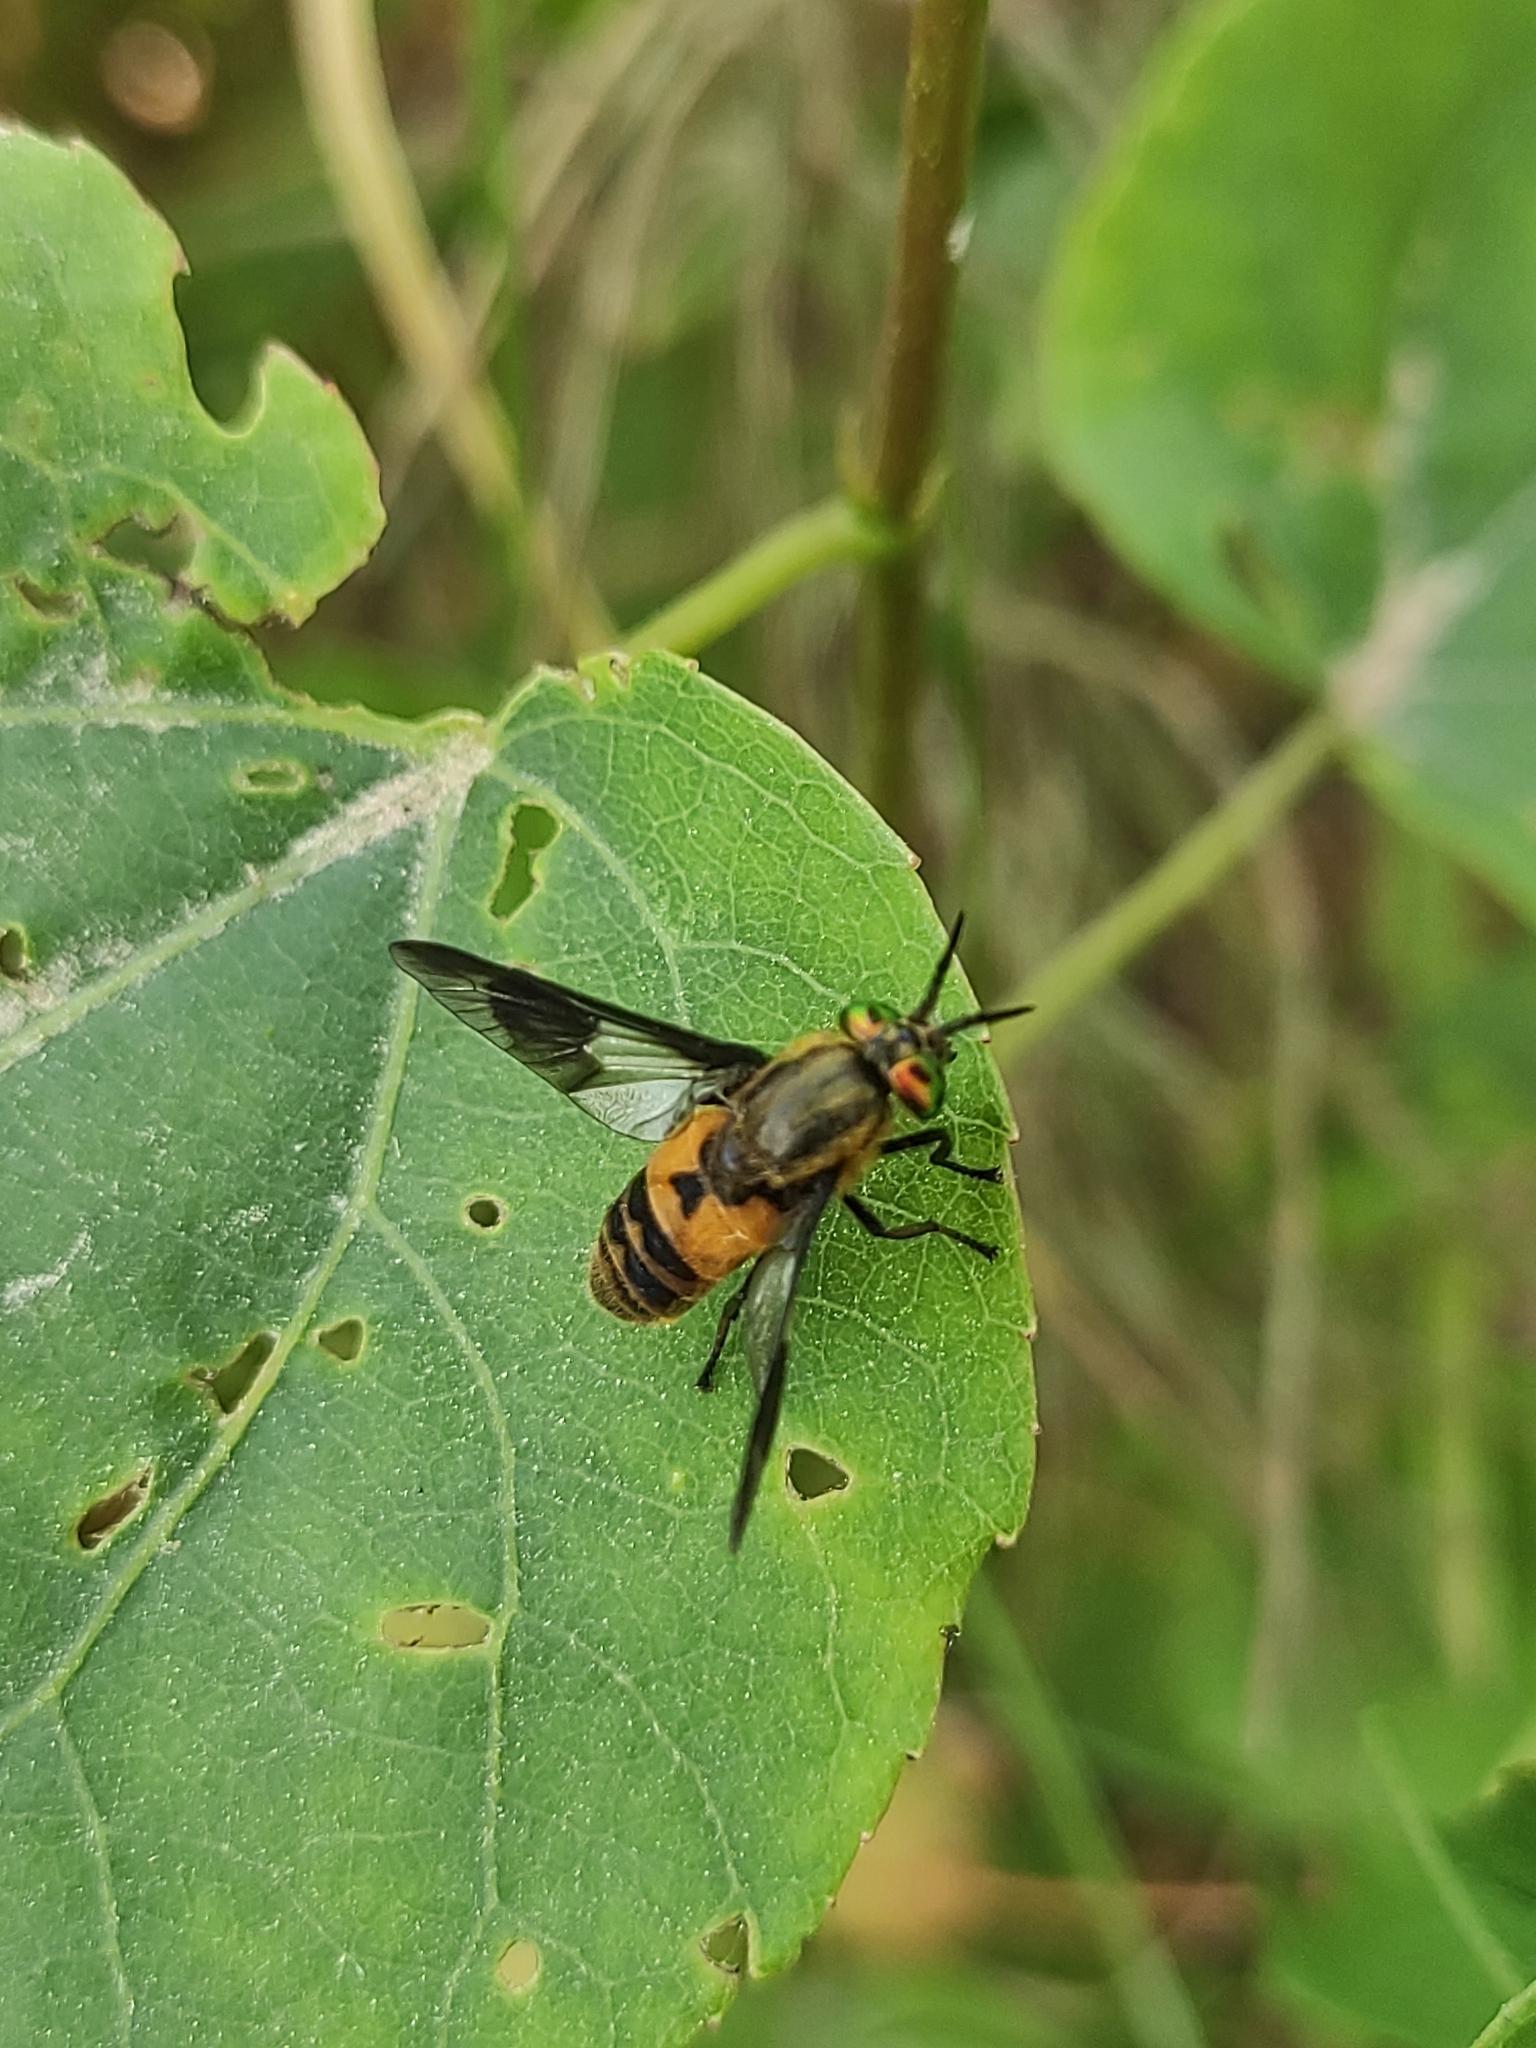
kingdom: Animalia
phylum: Arthropoda
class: Insecta
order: Diptera
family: Tabanidae
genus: Chrysops
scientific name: Chrysops viduatus
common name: Square-spot deerfly
